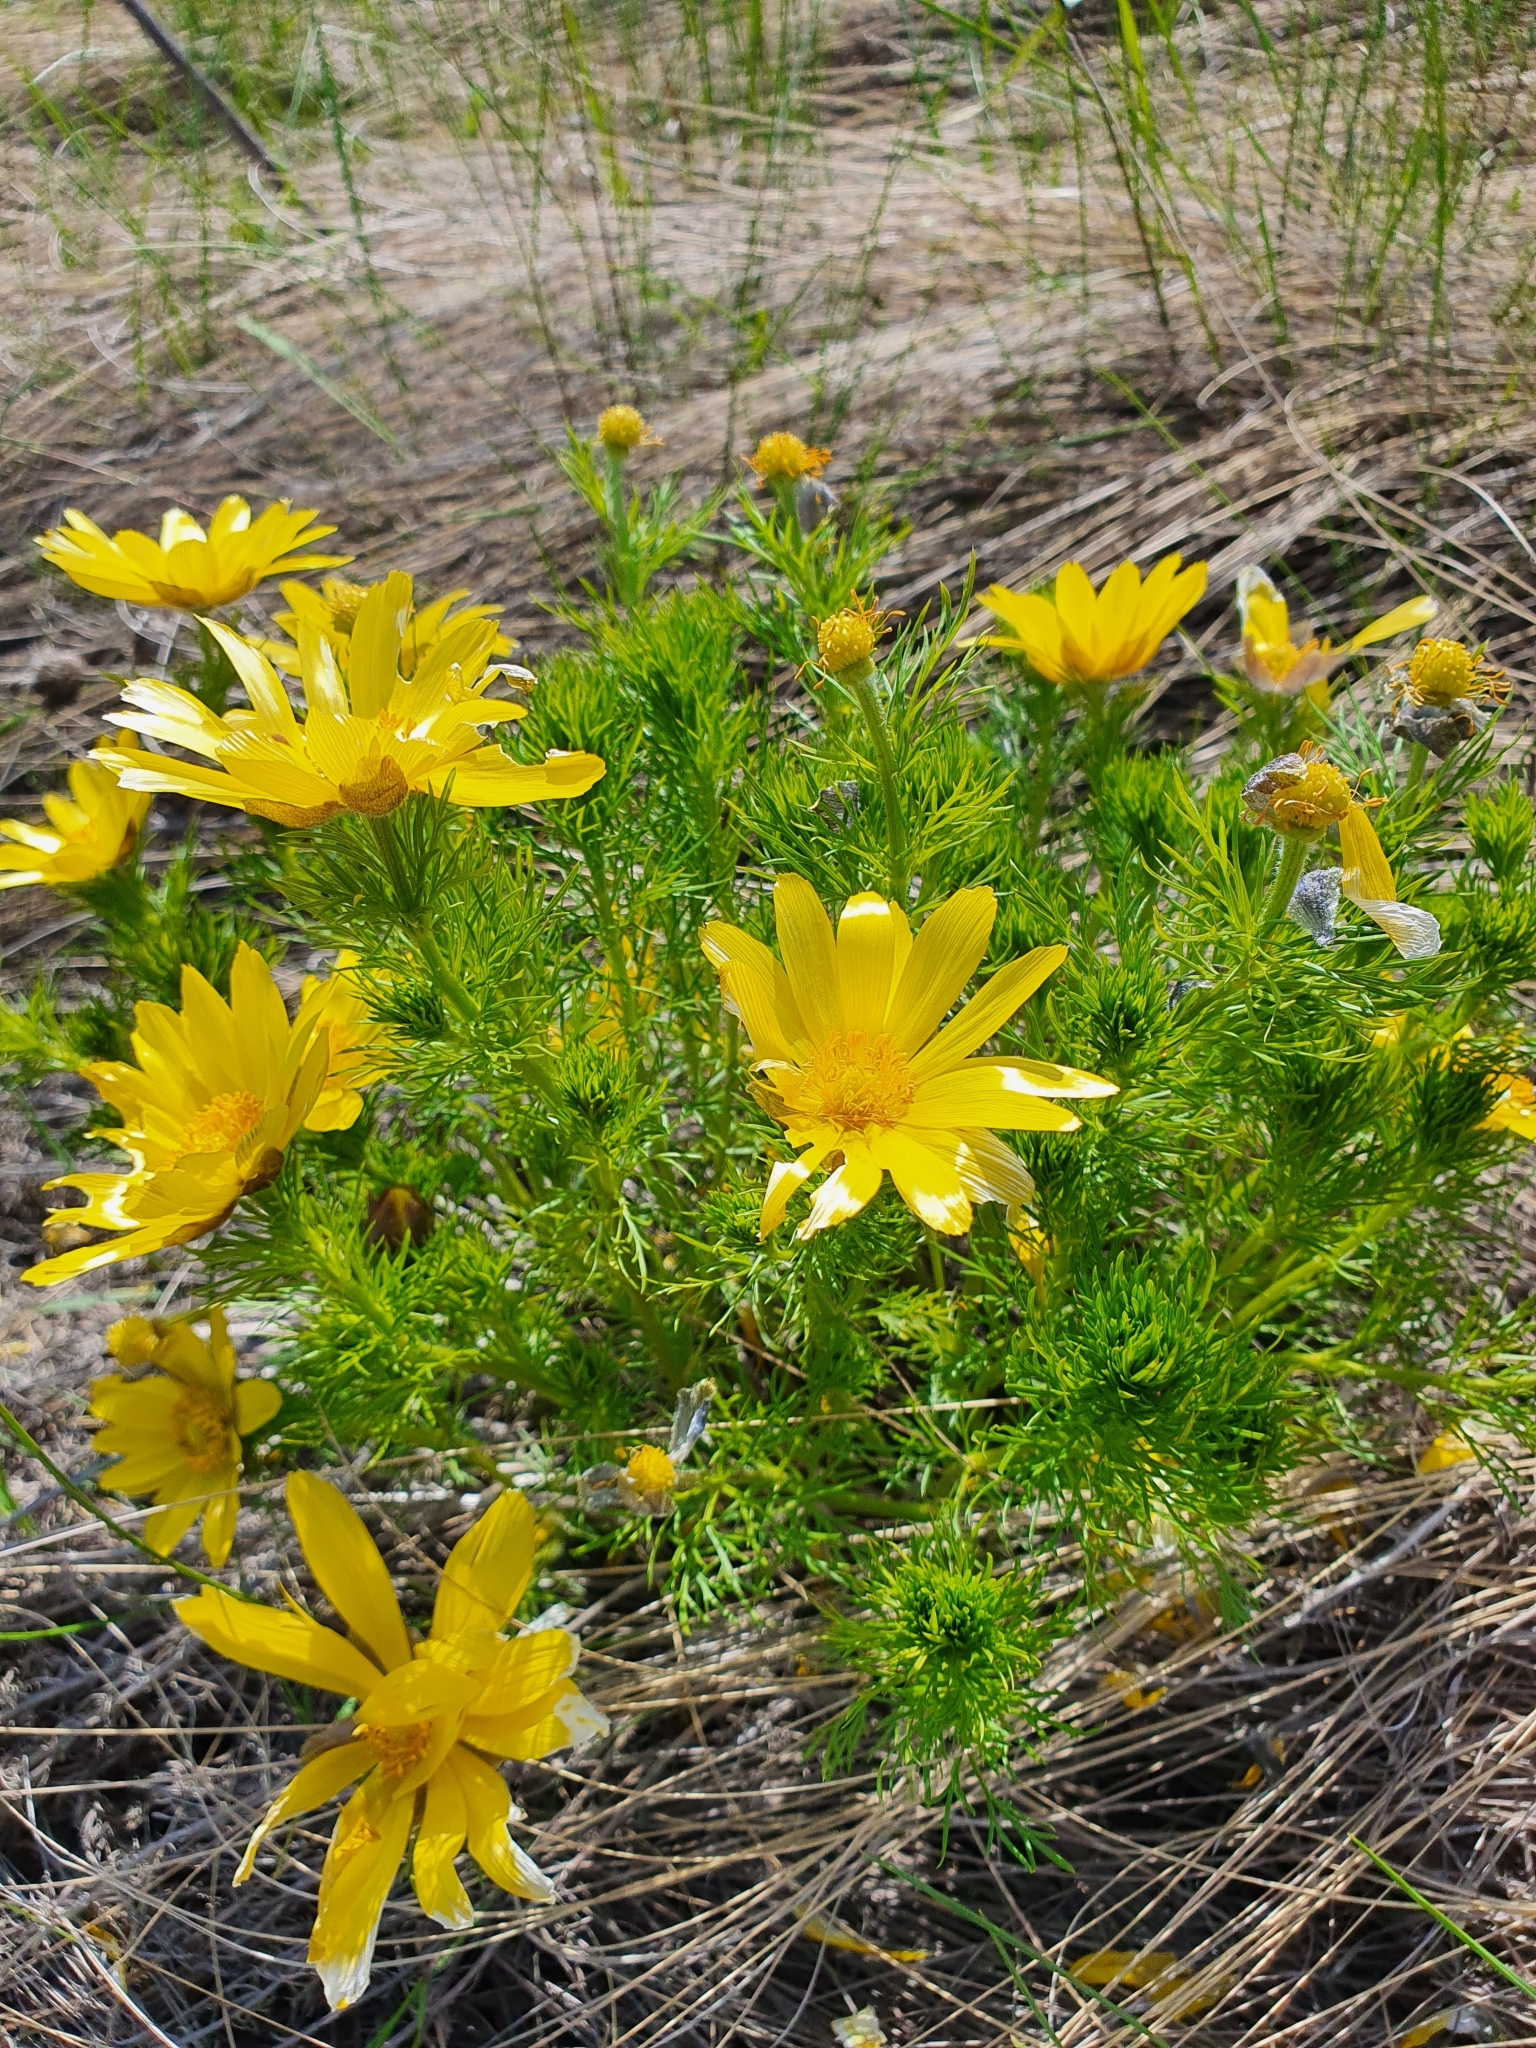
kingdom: Plantae
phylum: Tracheophyta
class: Magnoliopsida
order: Ranunculales
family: Ranunculaceae
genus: Adonis
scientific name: Adonis vernalis
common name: Yellow pheasants-eye
